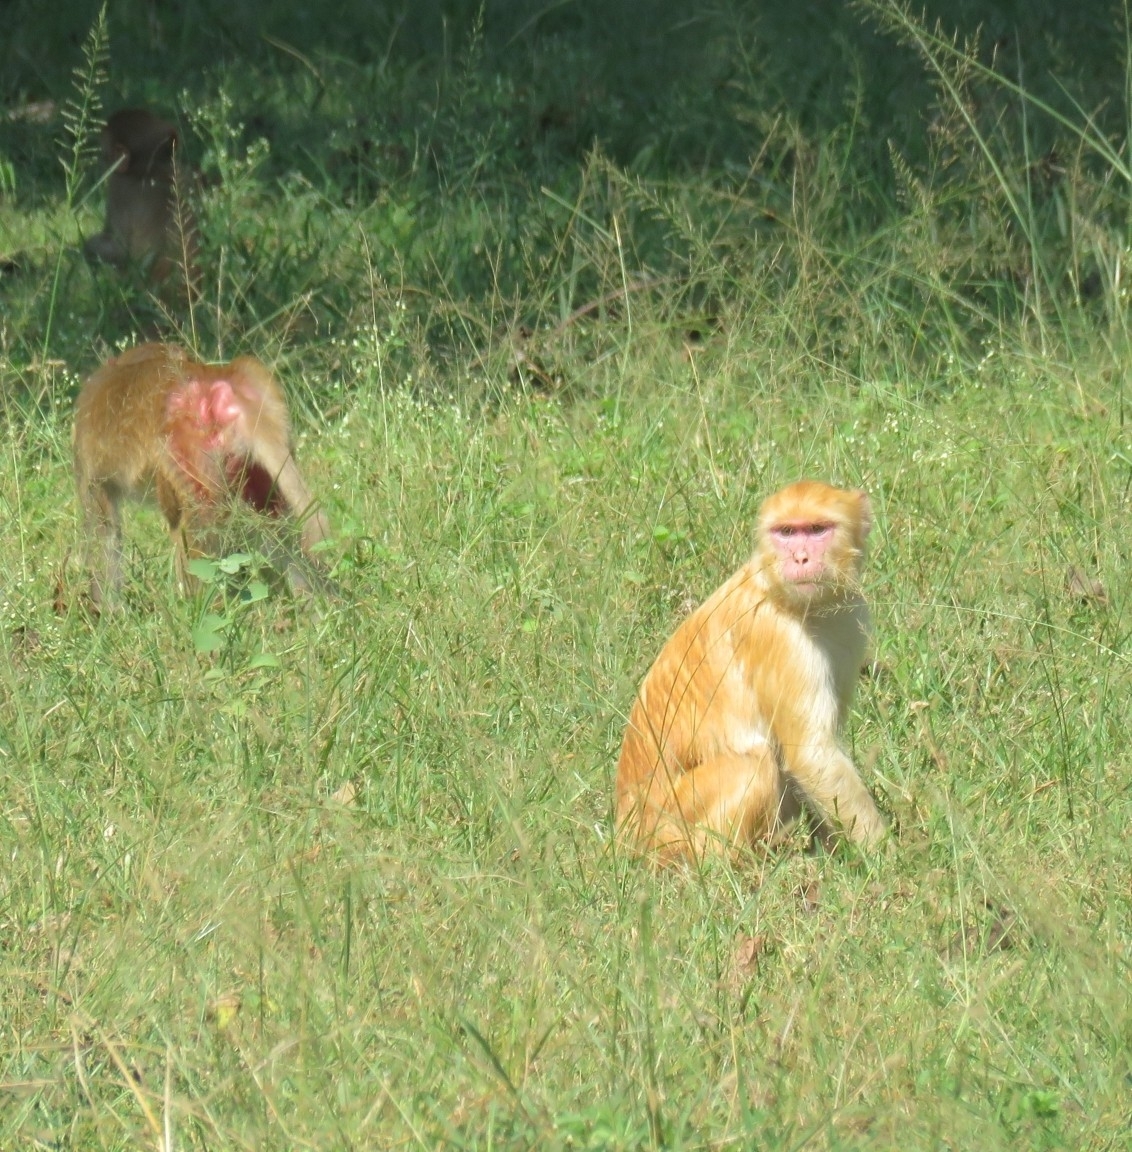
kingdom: Animalia
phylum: Chordata
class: Mammalia
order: Primates
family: Cercopithecidae
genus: Macaca
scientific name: Macaca mulatta
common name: Rhesus monkey
